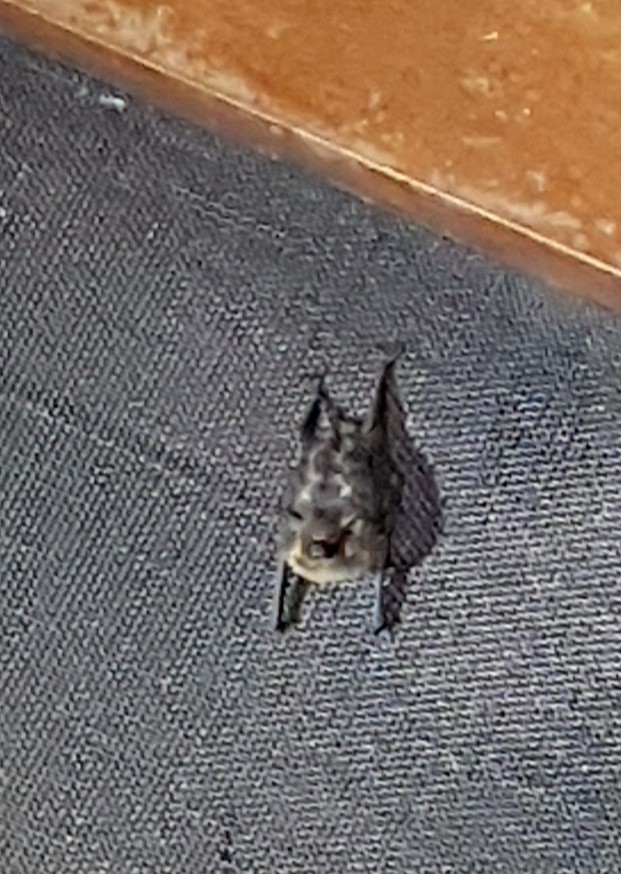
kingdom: Animalia
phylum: Chordata
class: Mammalia
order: Chiroptera
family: Emballonuridae
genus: Saccopteryx
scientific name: Saccopteryx bilineata
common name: Greater sac-winged bat
